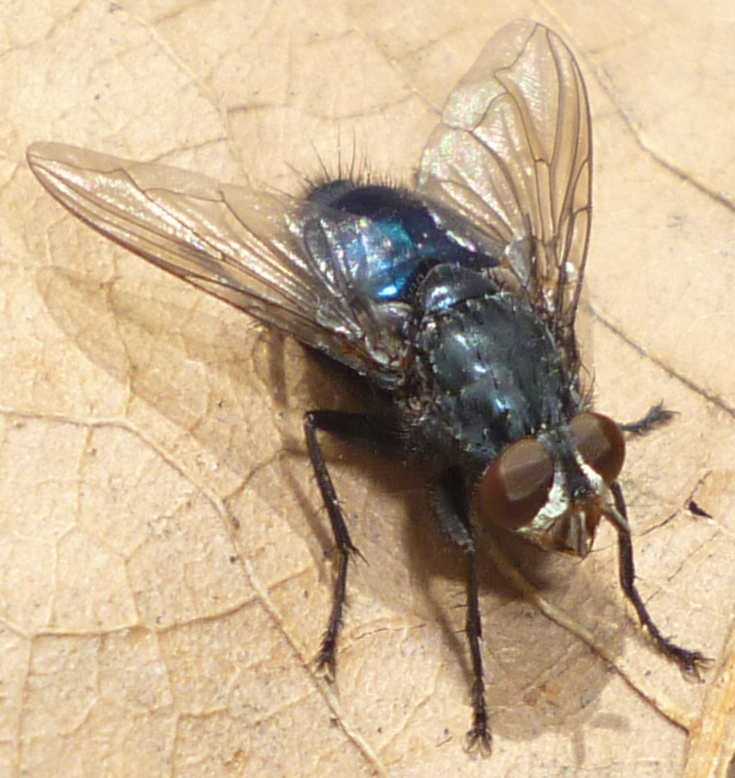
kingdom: Animalia
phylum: Arthropoda
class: Insecta
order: Diptera
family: Calliphoridae
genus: Cynomya
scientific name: Cynomya cadaverina
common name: Shiny blue bottle fly
